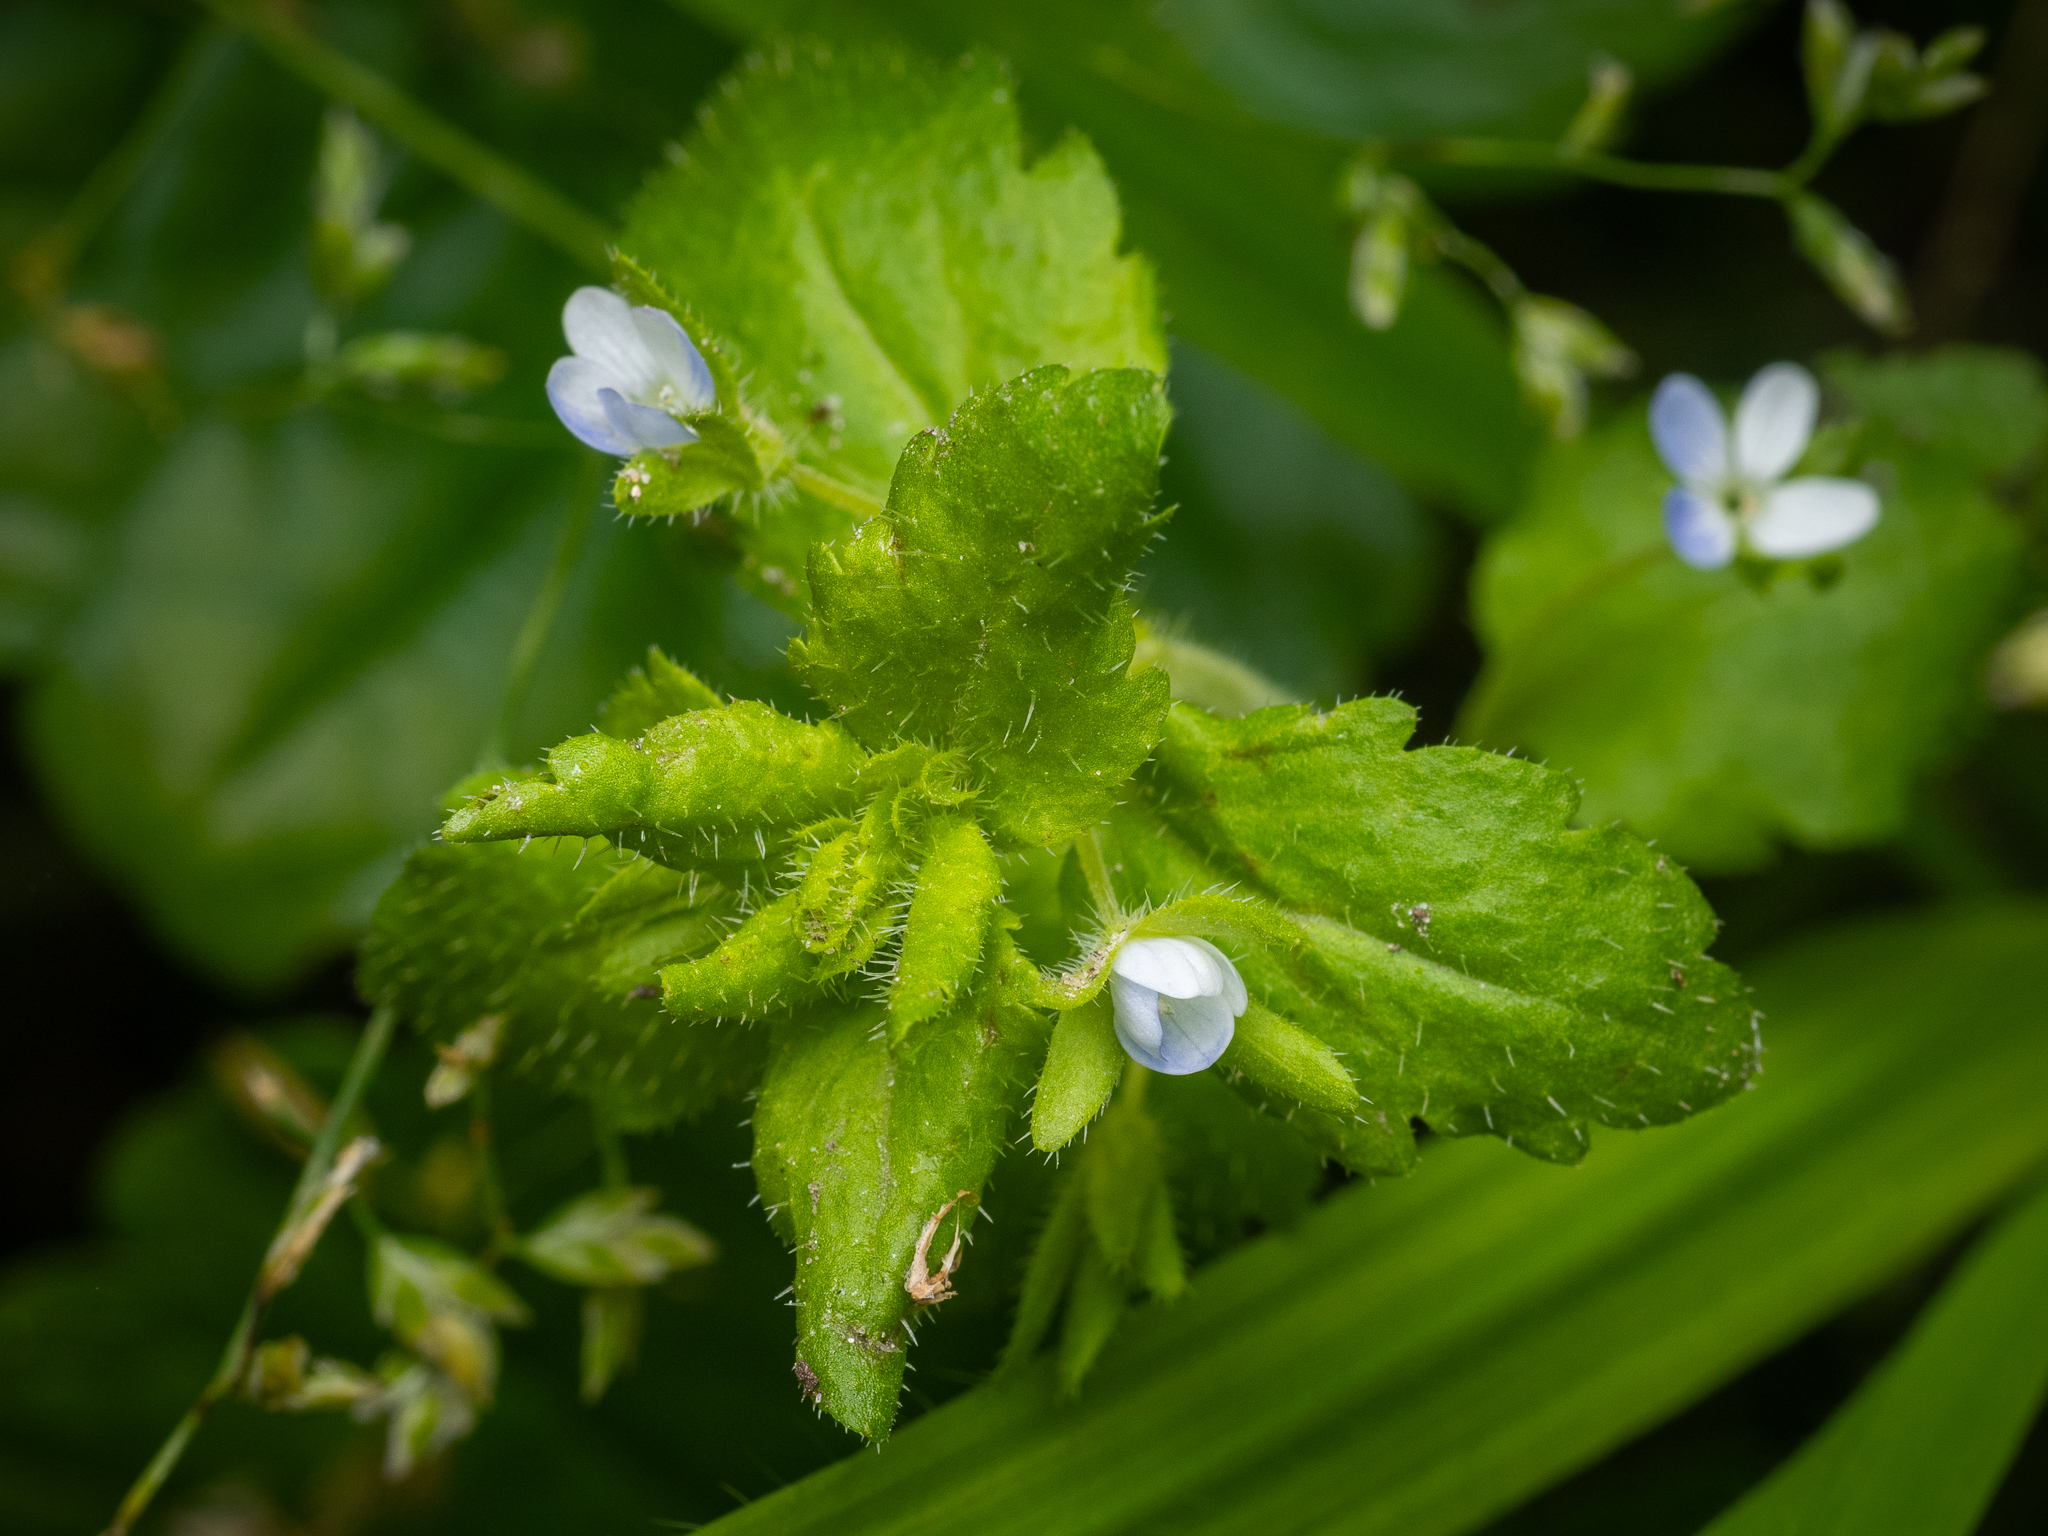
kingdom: Plantae
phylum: Tracheophyta
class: Magnoliopsida
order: Lamiales
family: Plantaginaceae
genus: Veronica
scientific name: Veronica agrestis
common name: Green field-speedwell
